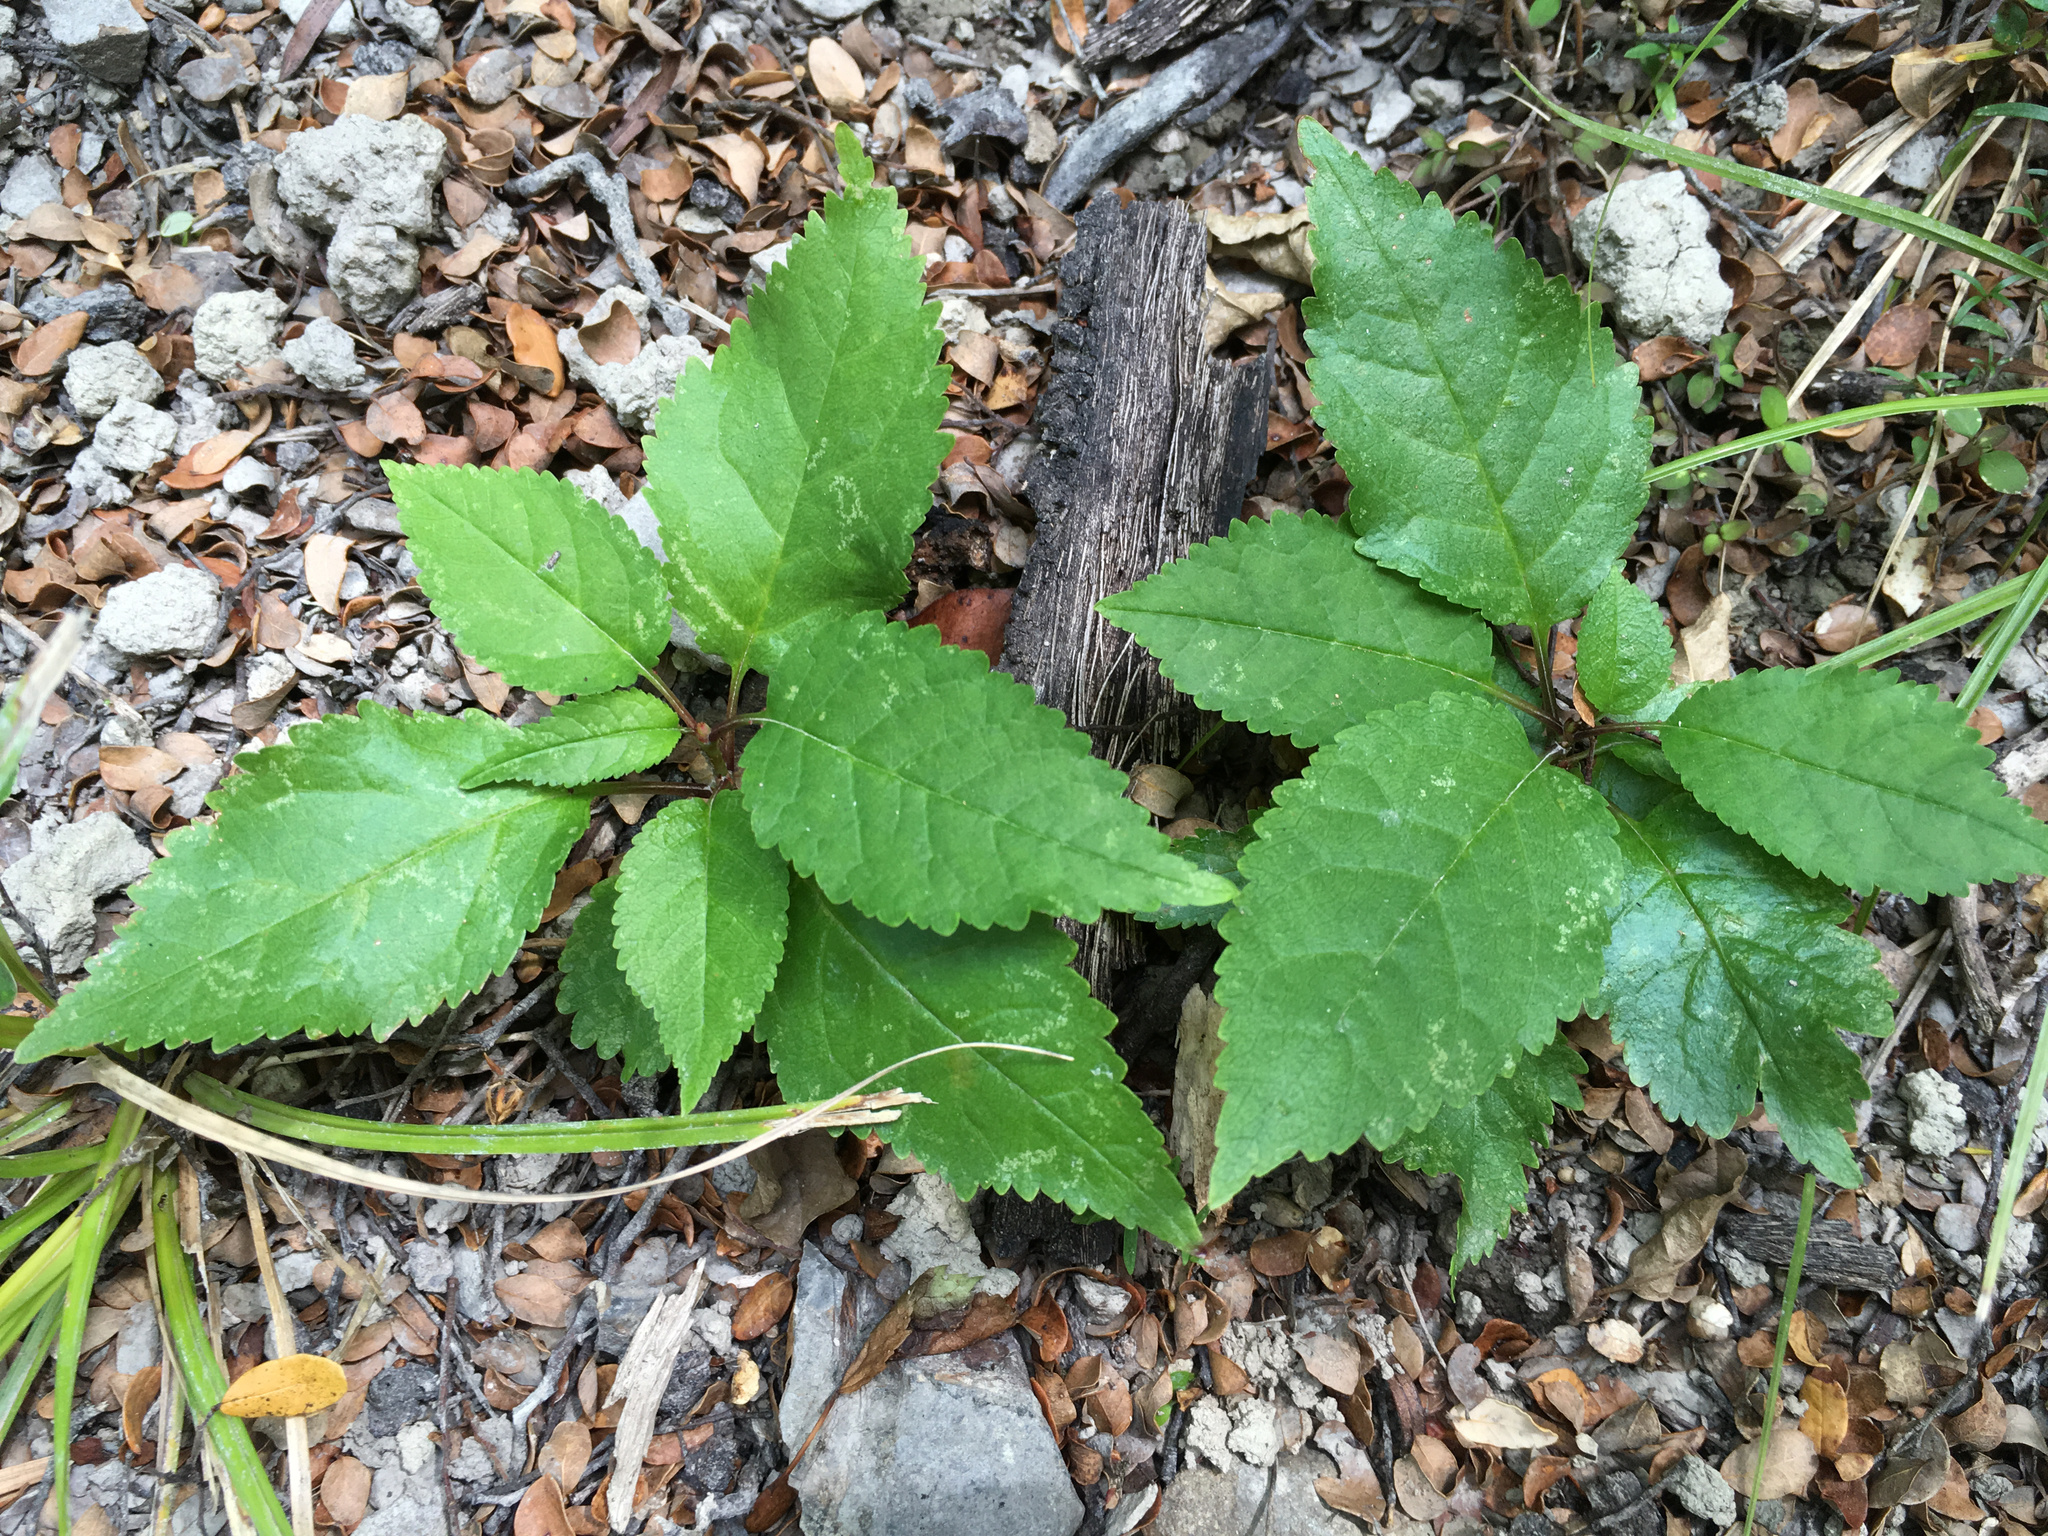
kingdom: Plantae
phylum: Tracheophyta
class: Magnoliopsida
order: Rosales
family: Rosaceae
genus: Prunus
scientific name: Prunus avium
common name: Sweet cherry
